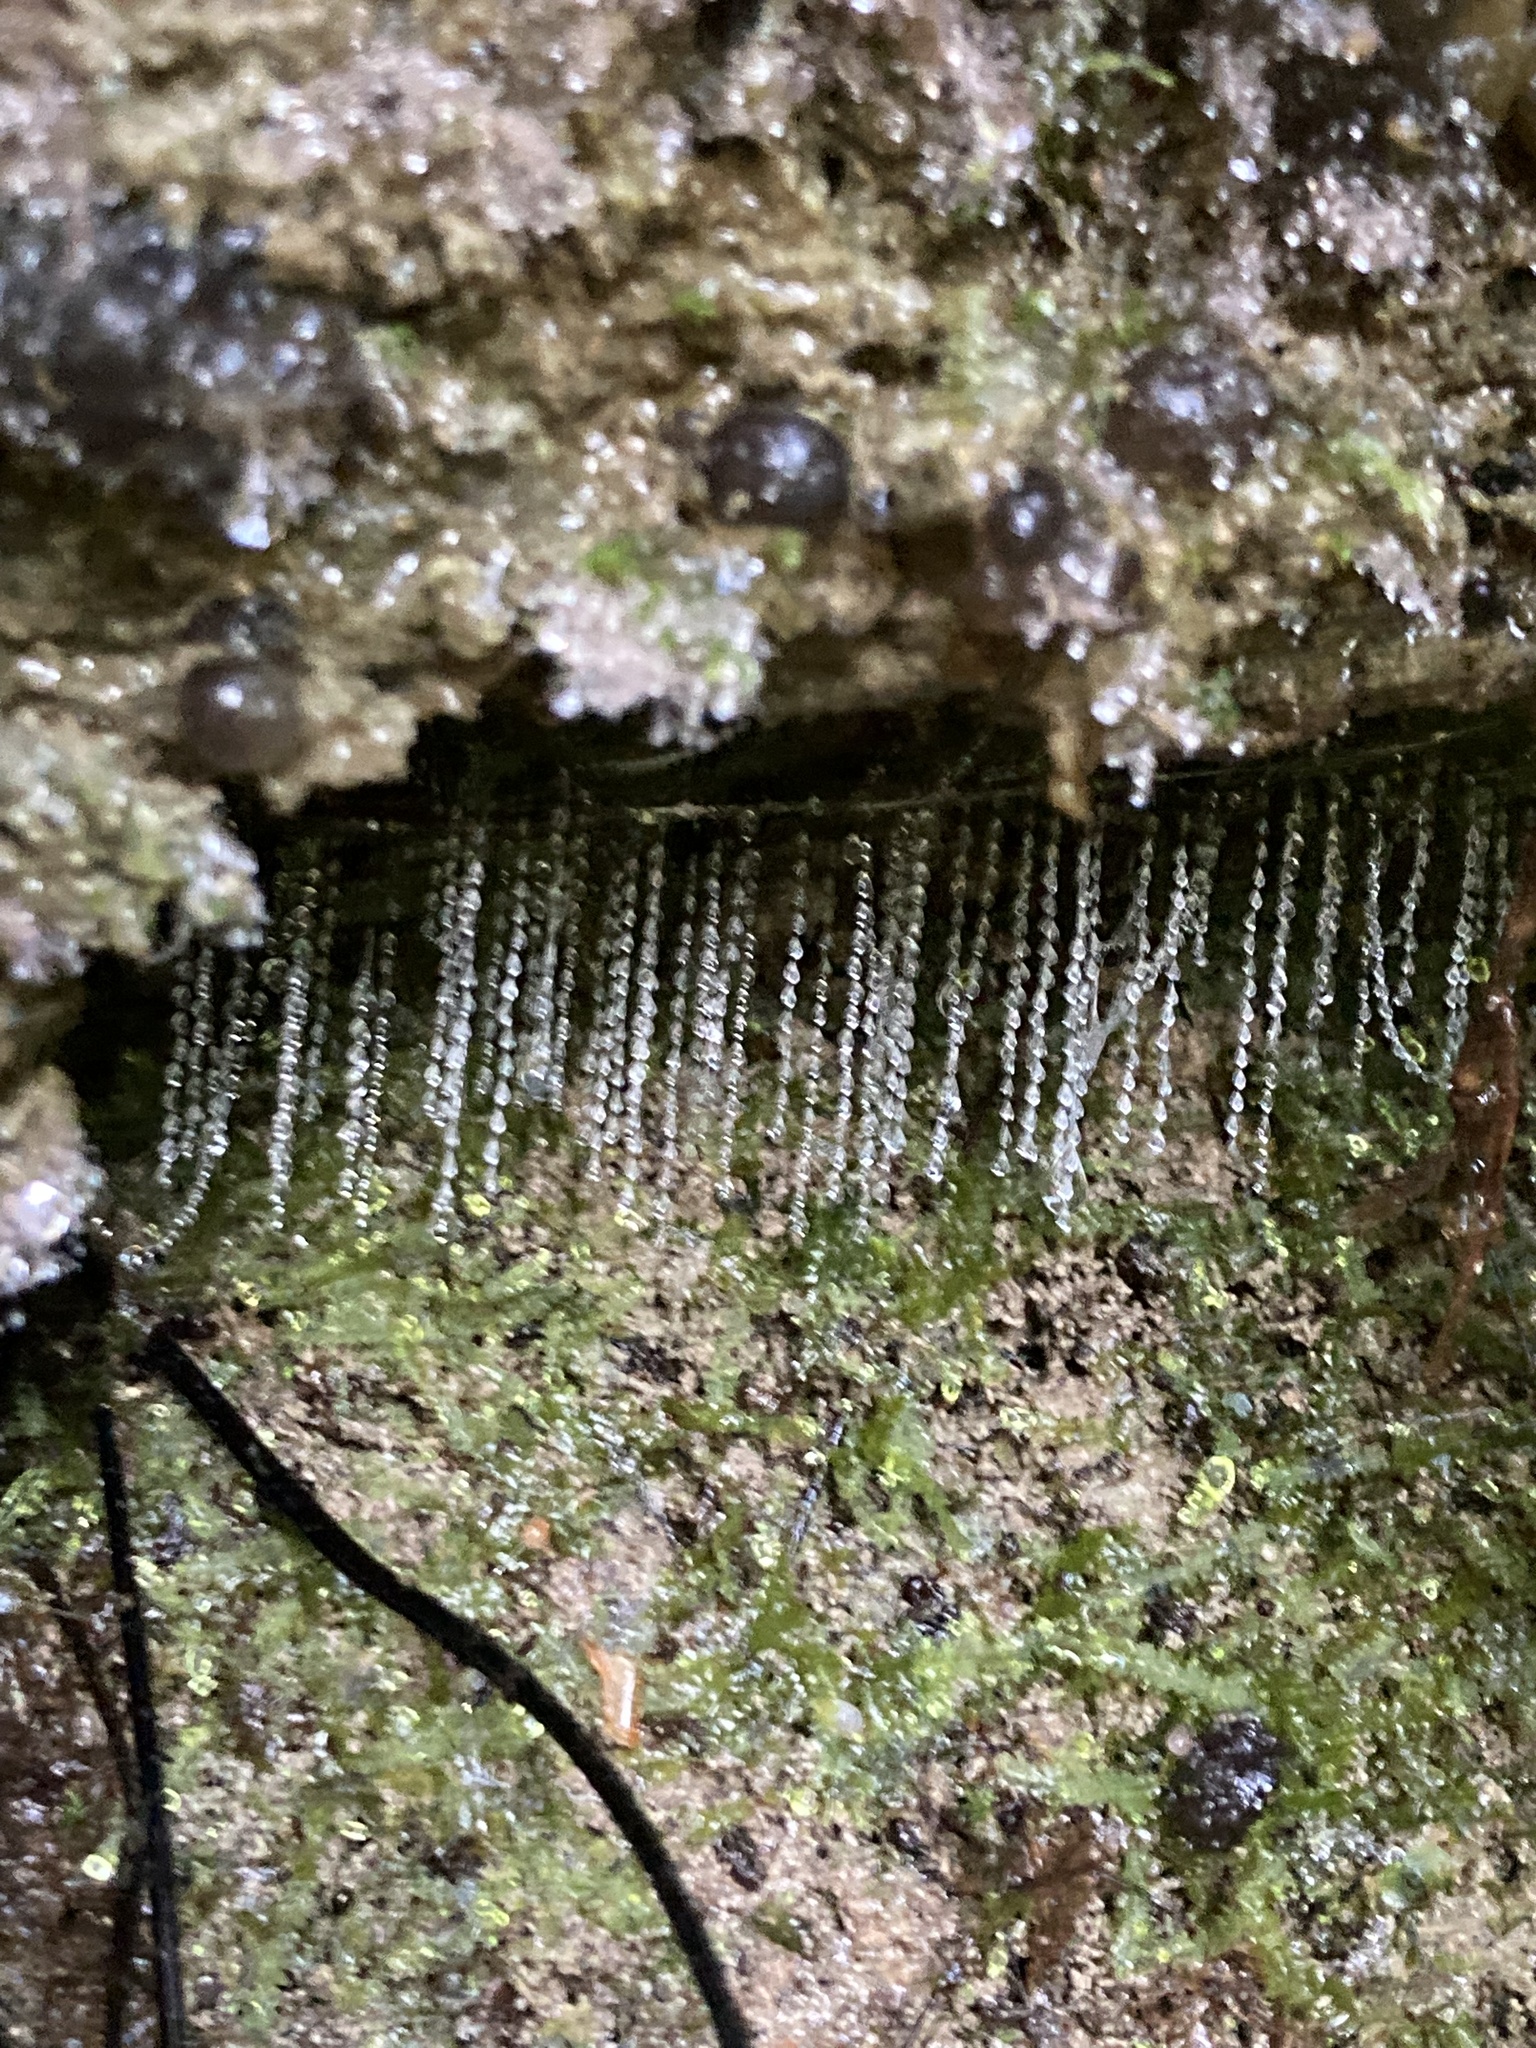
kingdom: Animalia
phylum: Arthropoda
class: Insecta
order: Diptera
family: Keroplatidae
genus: Arachnocampa
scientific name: Arachnocampa luminosa
